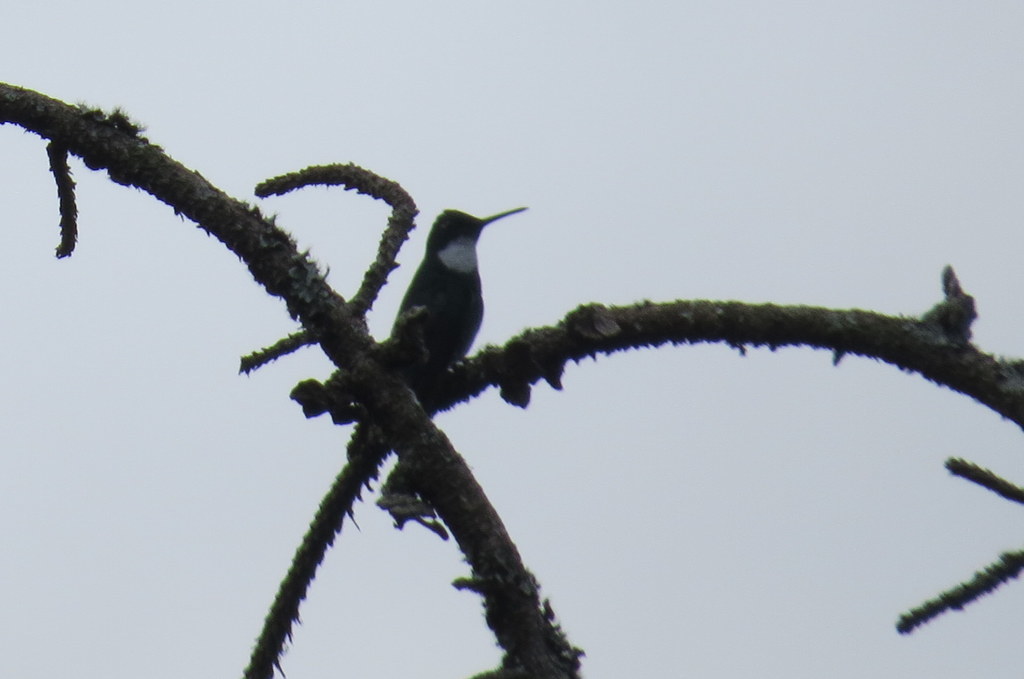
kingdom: Animalia
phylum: Chordata
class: Aves
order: Apodiformes
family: Trochilidae
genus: Leucochloris
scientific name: Leucochloris albicollis
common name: White-throated hummingbird
